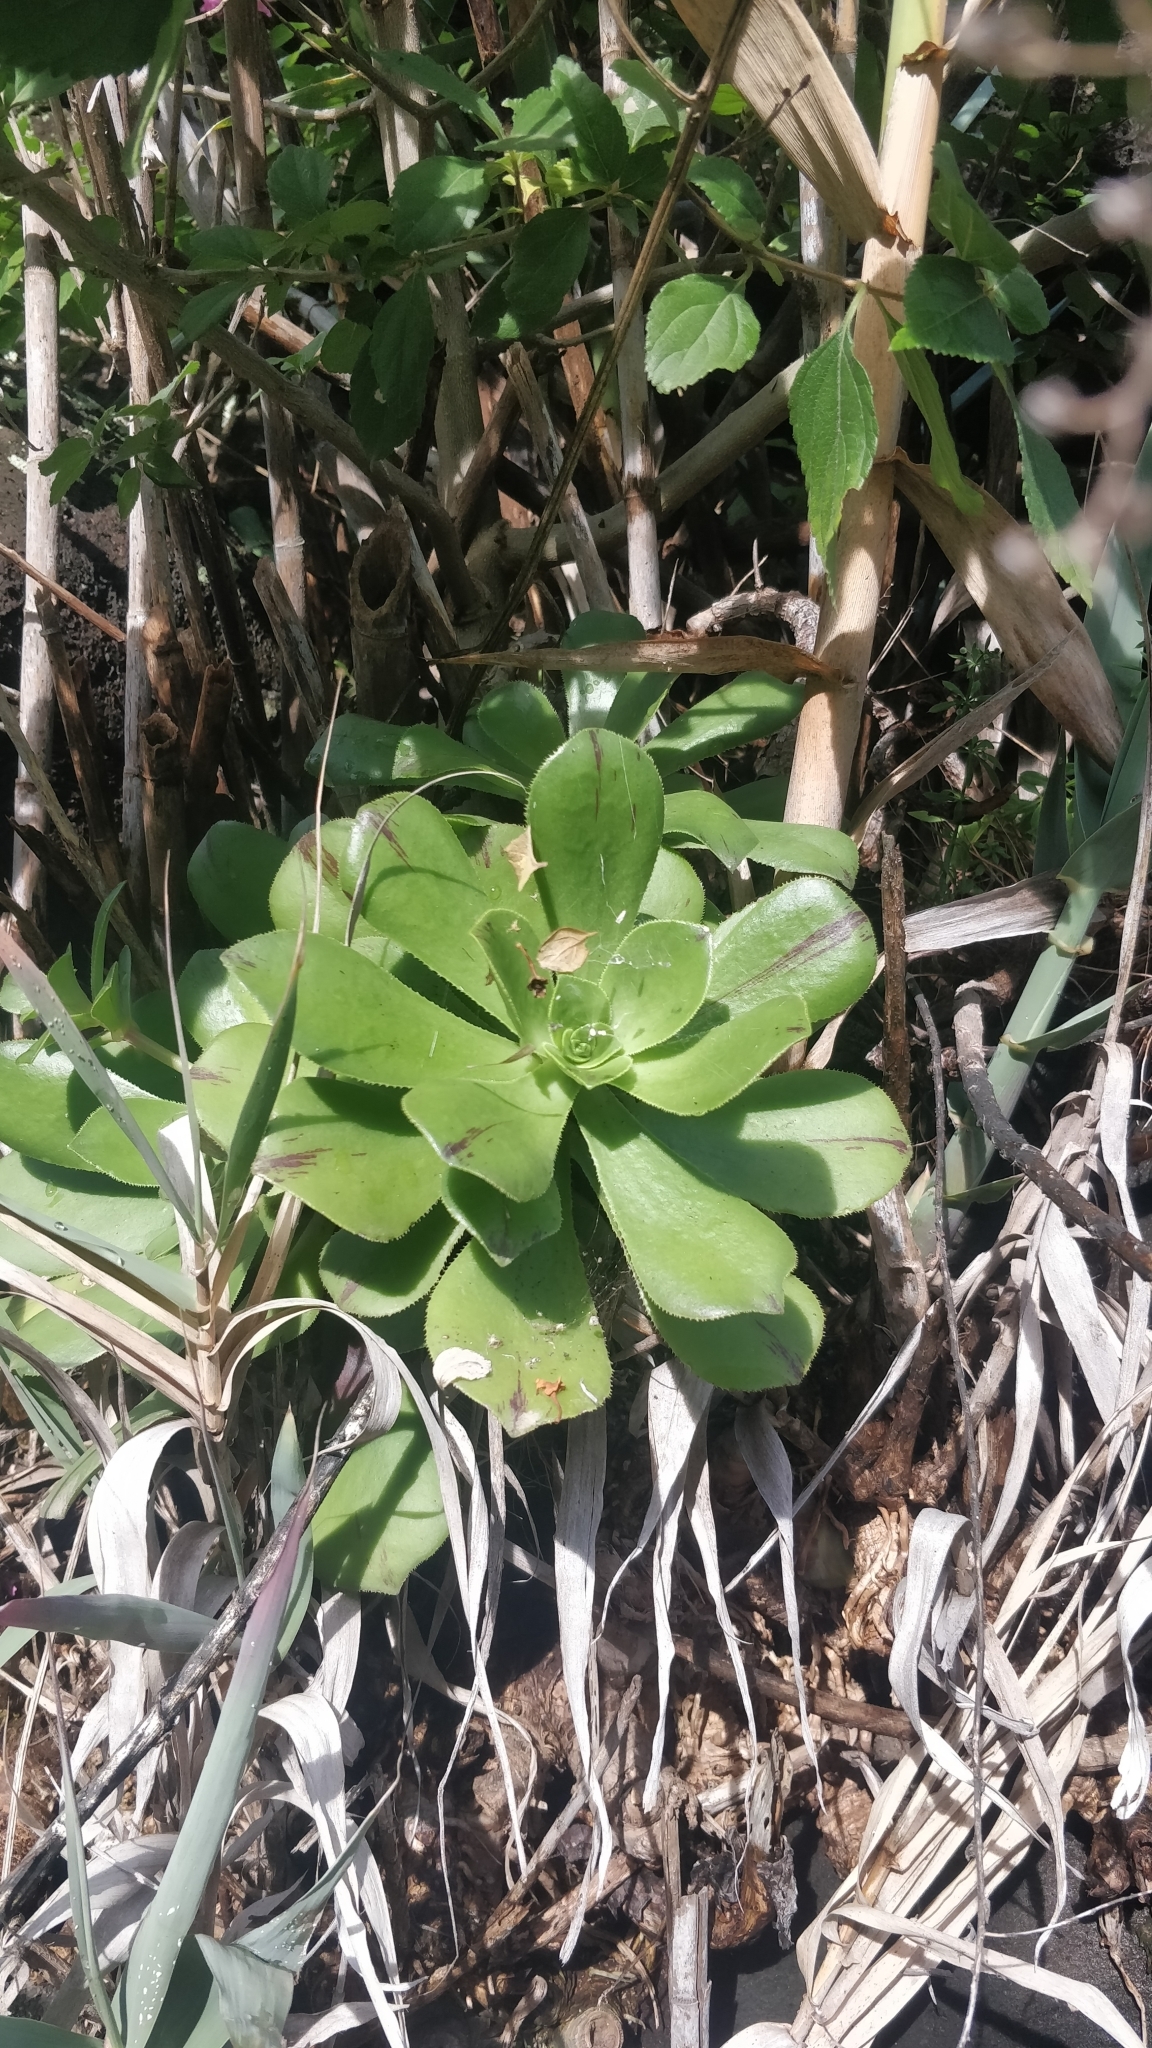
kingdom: Plantae
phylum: Tracheophyta
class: Magnoliopsida
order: Saxifragales
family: Crassulaceae
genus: Aeonium
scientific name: Aeonium glutinosum
